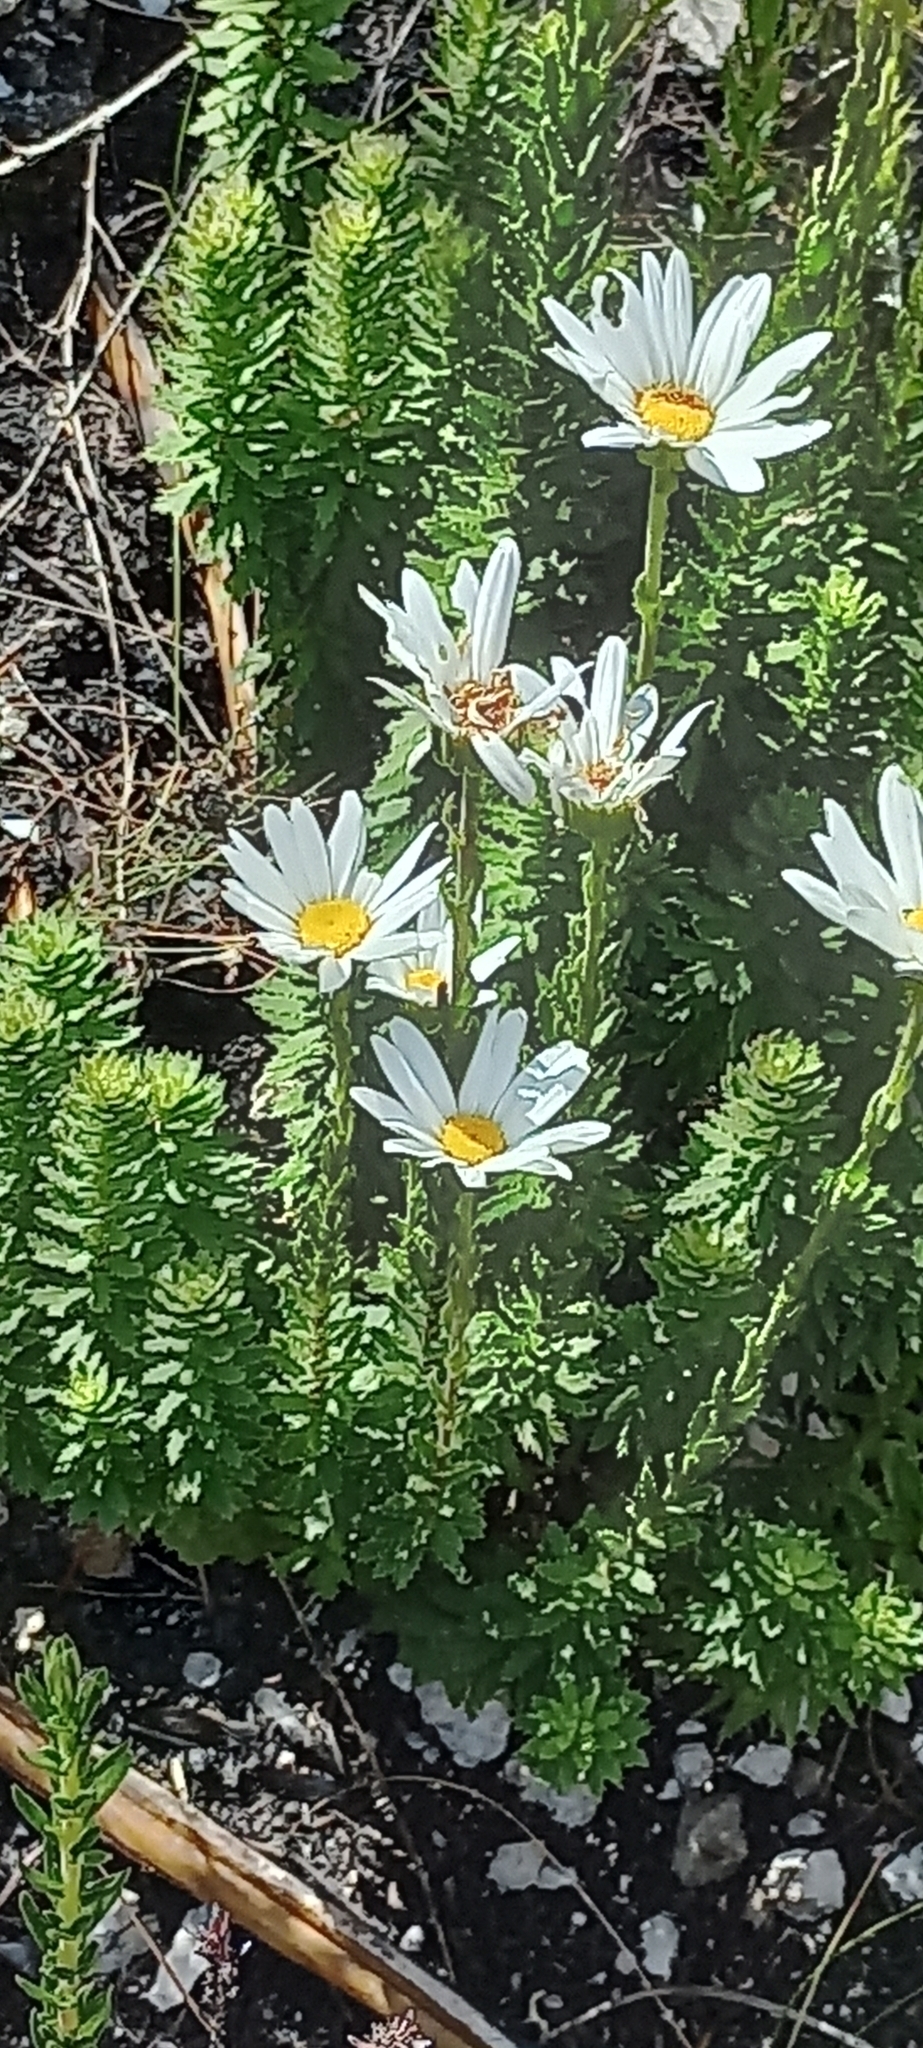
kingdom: Plantae
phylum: Tracheophyta
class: Magnoliopsida
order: Asterales
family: Asteraceae
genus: Osmitopsis
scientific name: Osmitopsis asteriscoides
